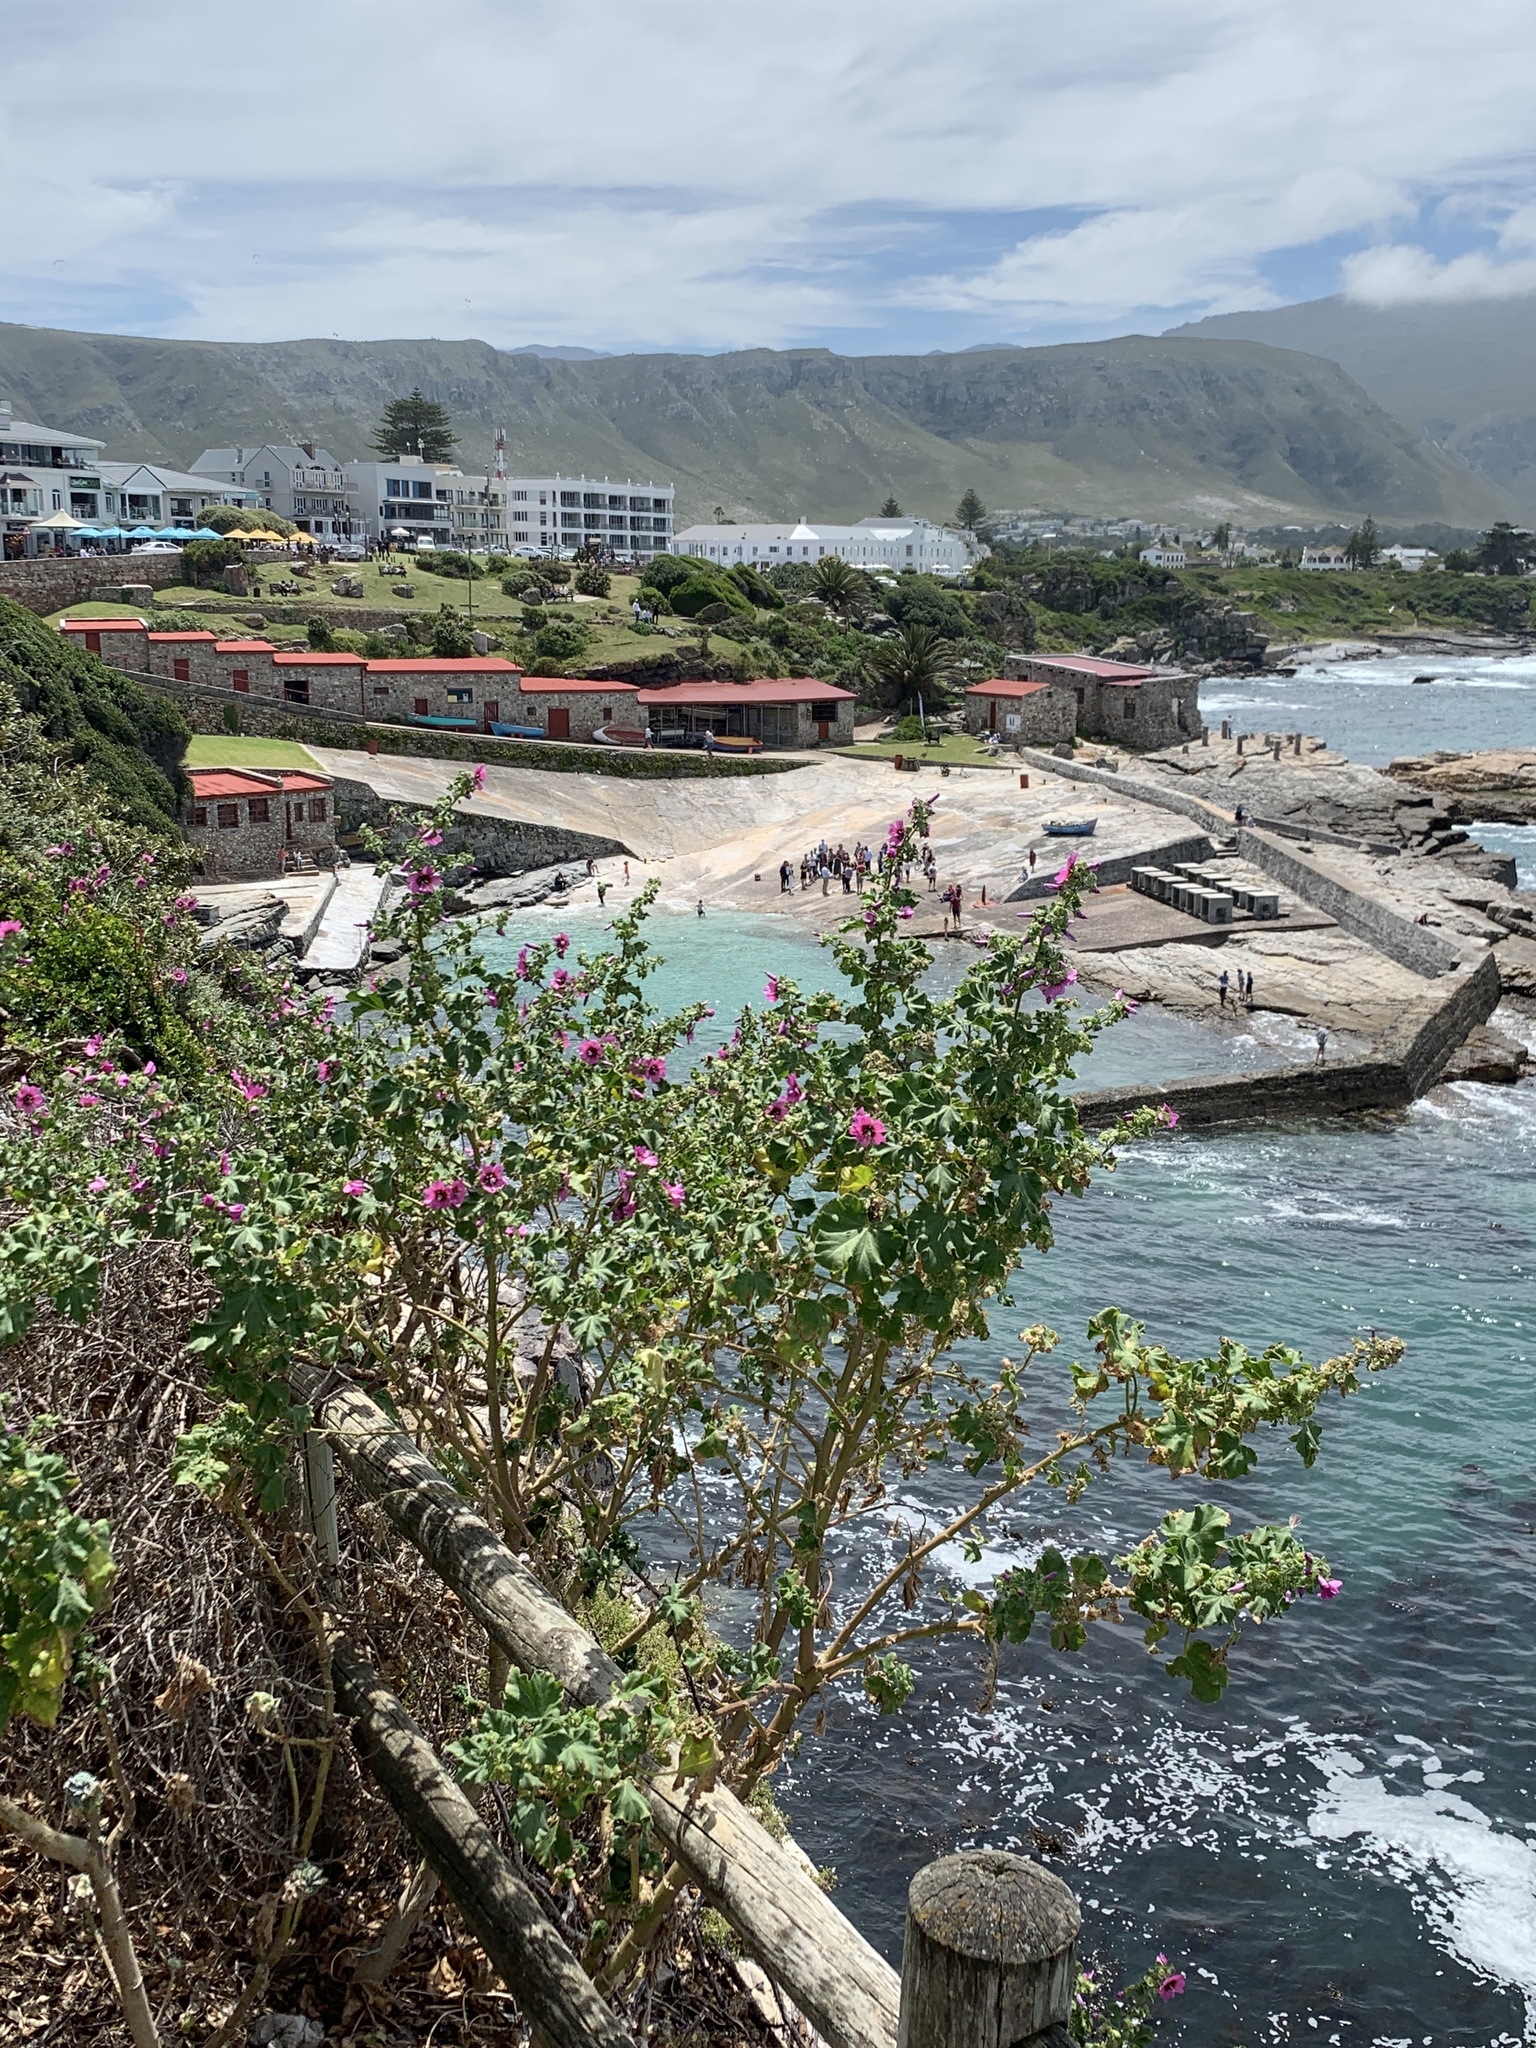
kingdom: Plantae
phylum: Tracheophyta
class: Magnoliopsida
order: Malvales
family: Malvaceae
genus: Malva
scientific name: Malva arborea
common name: Tree mallow
